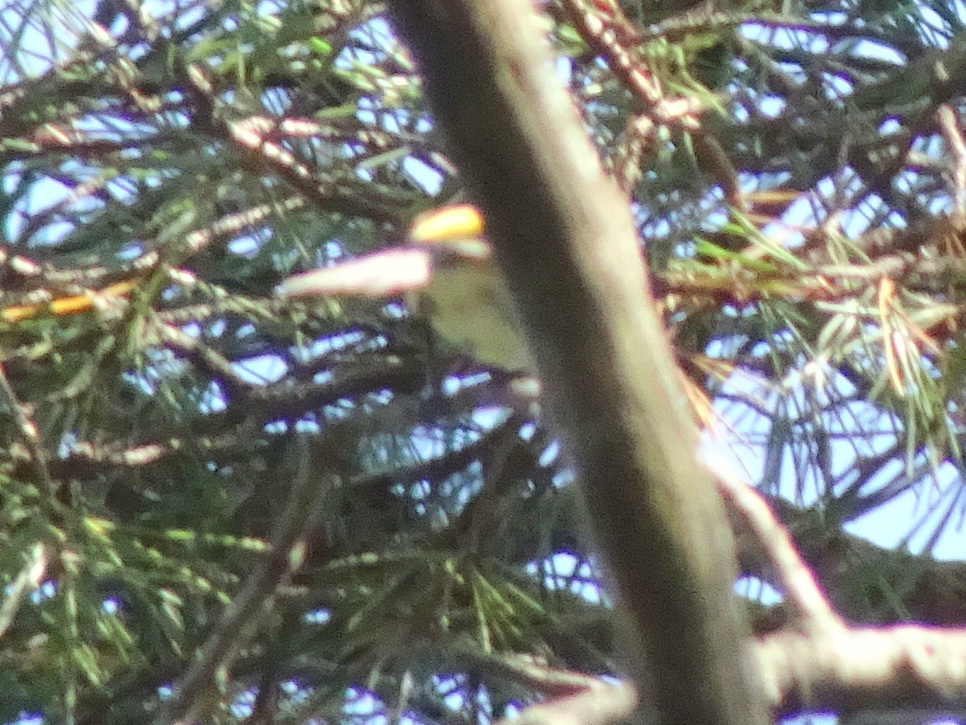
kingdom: Animalia
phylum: Chordata
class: Aves
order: Passeriformes
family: Parulidae
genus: Setophaga
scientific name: Setophaga coronata
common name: Myrtle warbler
